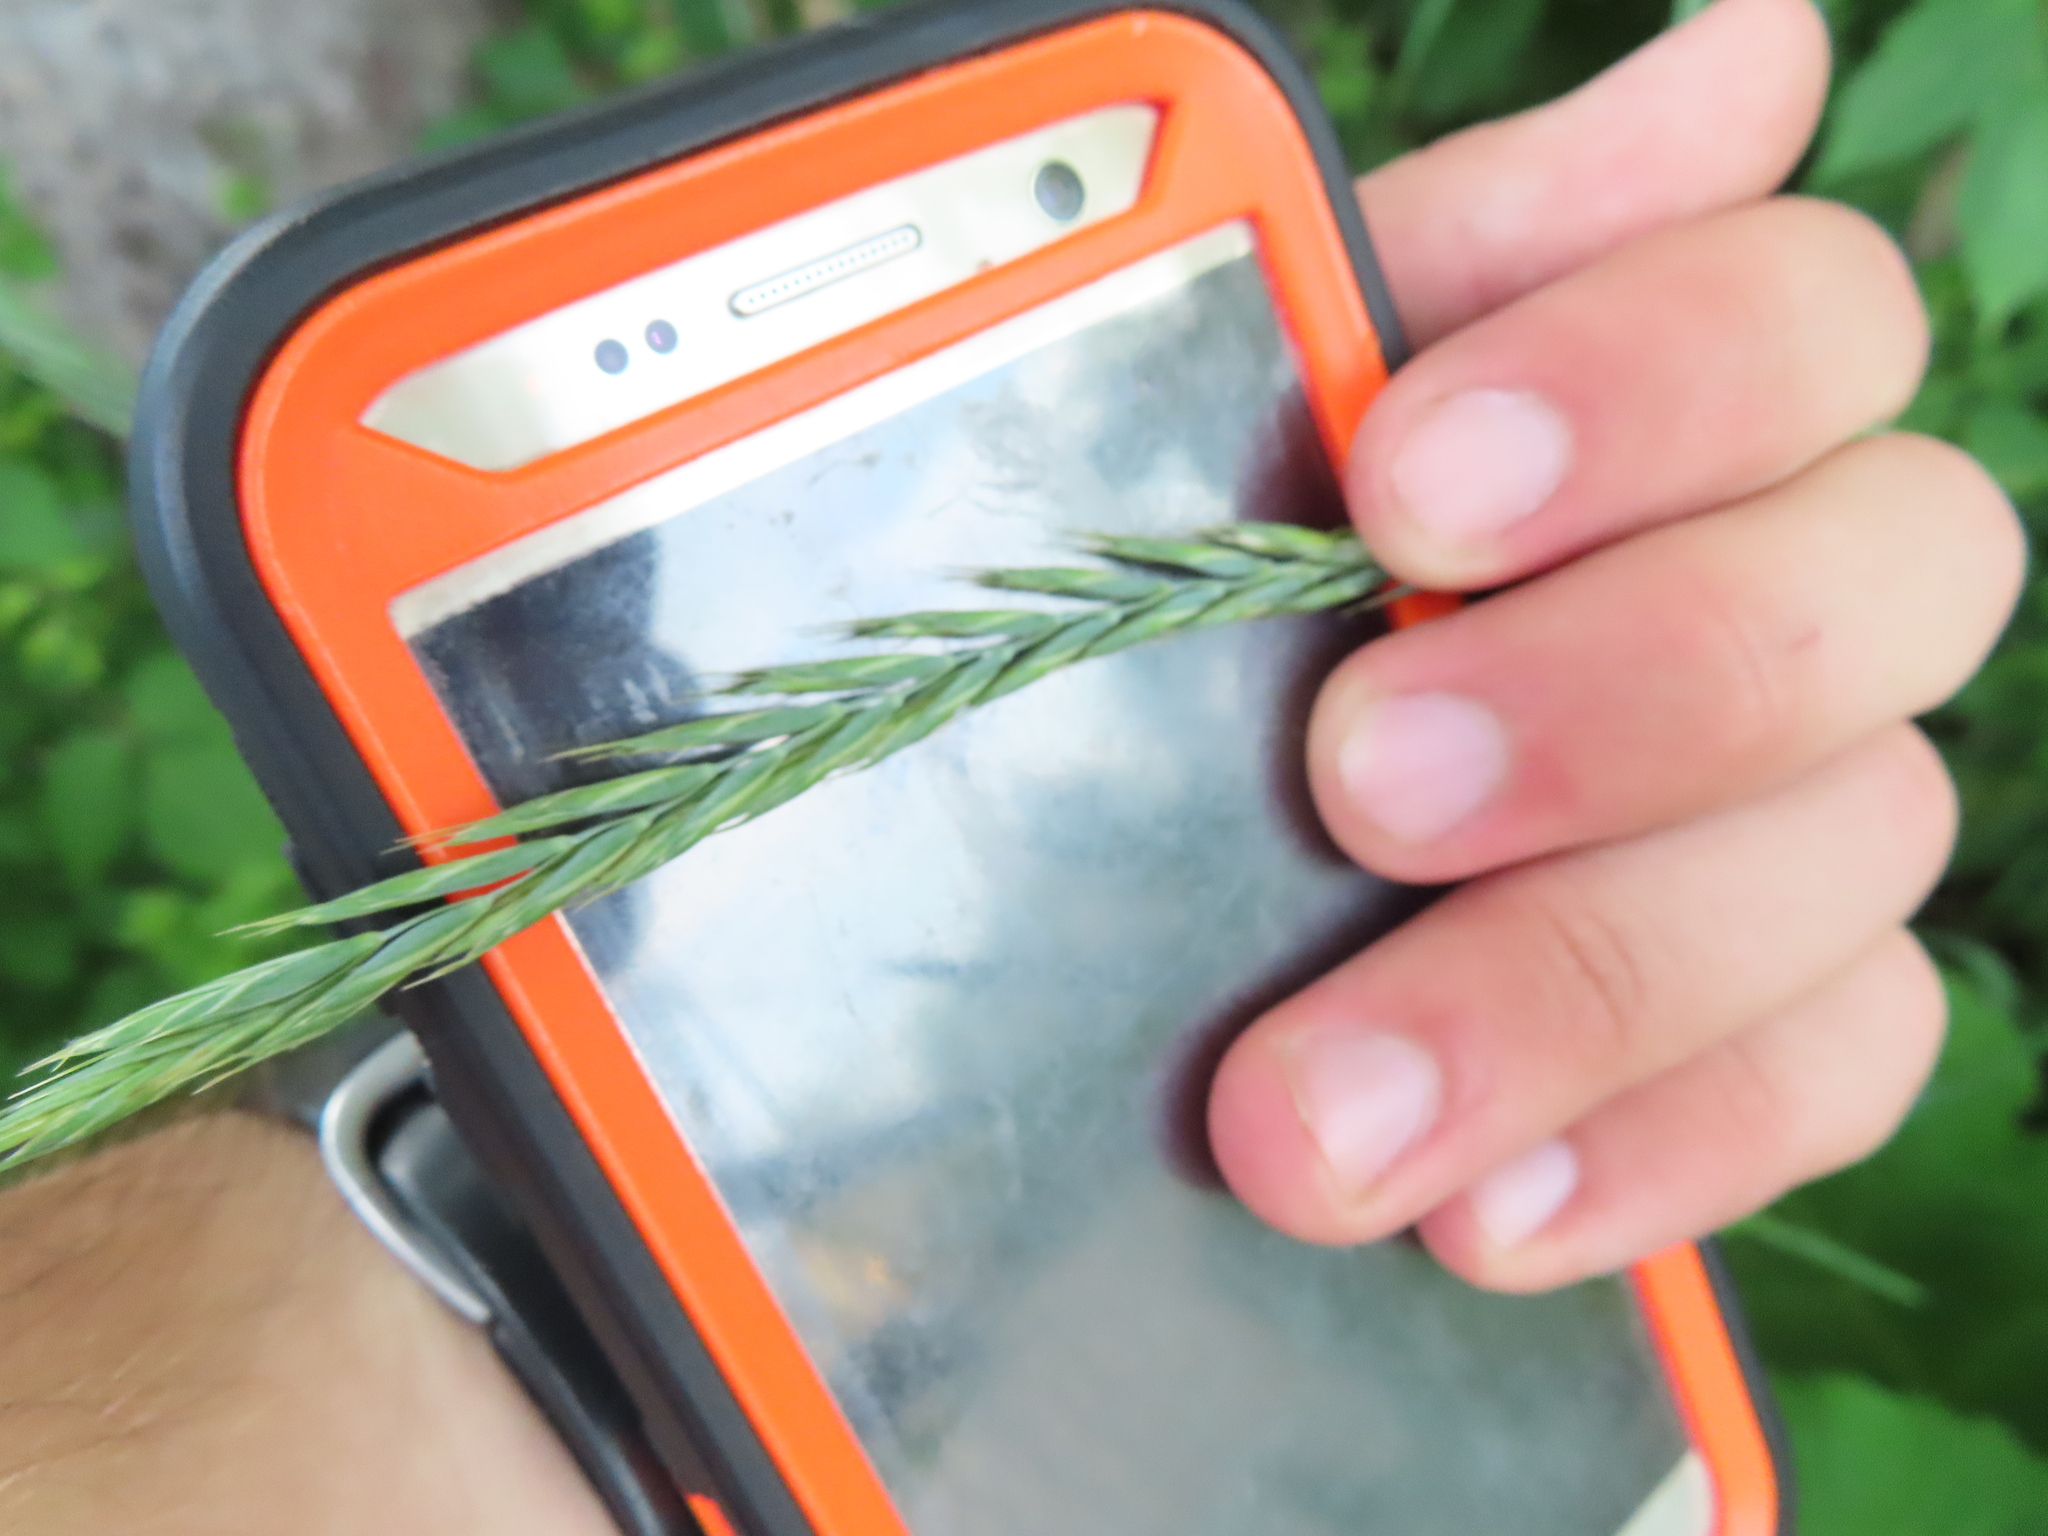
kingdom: Plantae
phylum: Tracheophyta
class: Liliopsida
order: Poales
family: Poaceae
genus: Elymus
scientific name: Elymus repens
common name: Quackgrass
